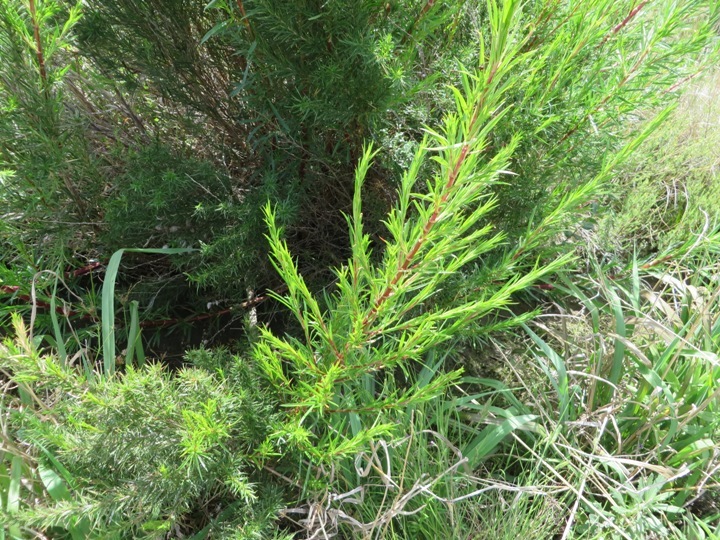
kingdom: Plantae
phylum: Tracheophyta
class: Magnoliopsida
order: Rosales
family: Rosaceae
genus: Cliffortia
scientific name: Cliffortia strobilifera
